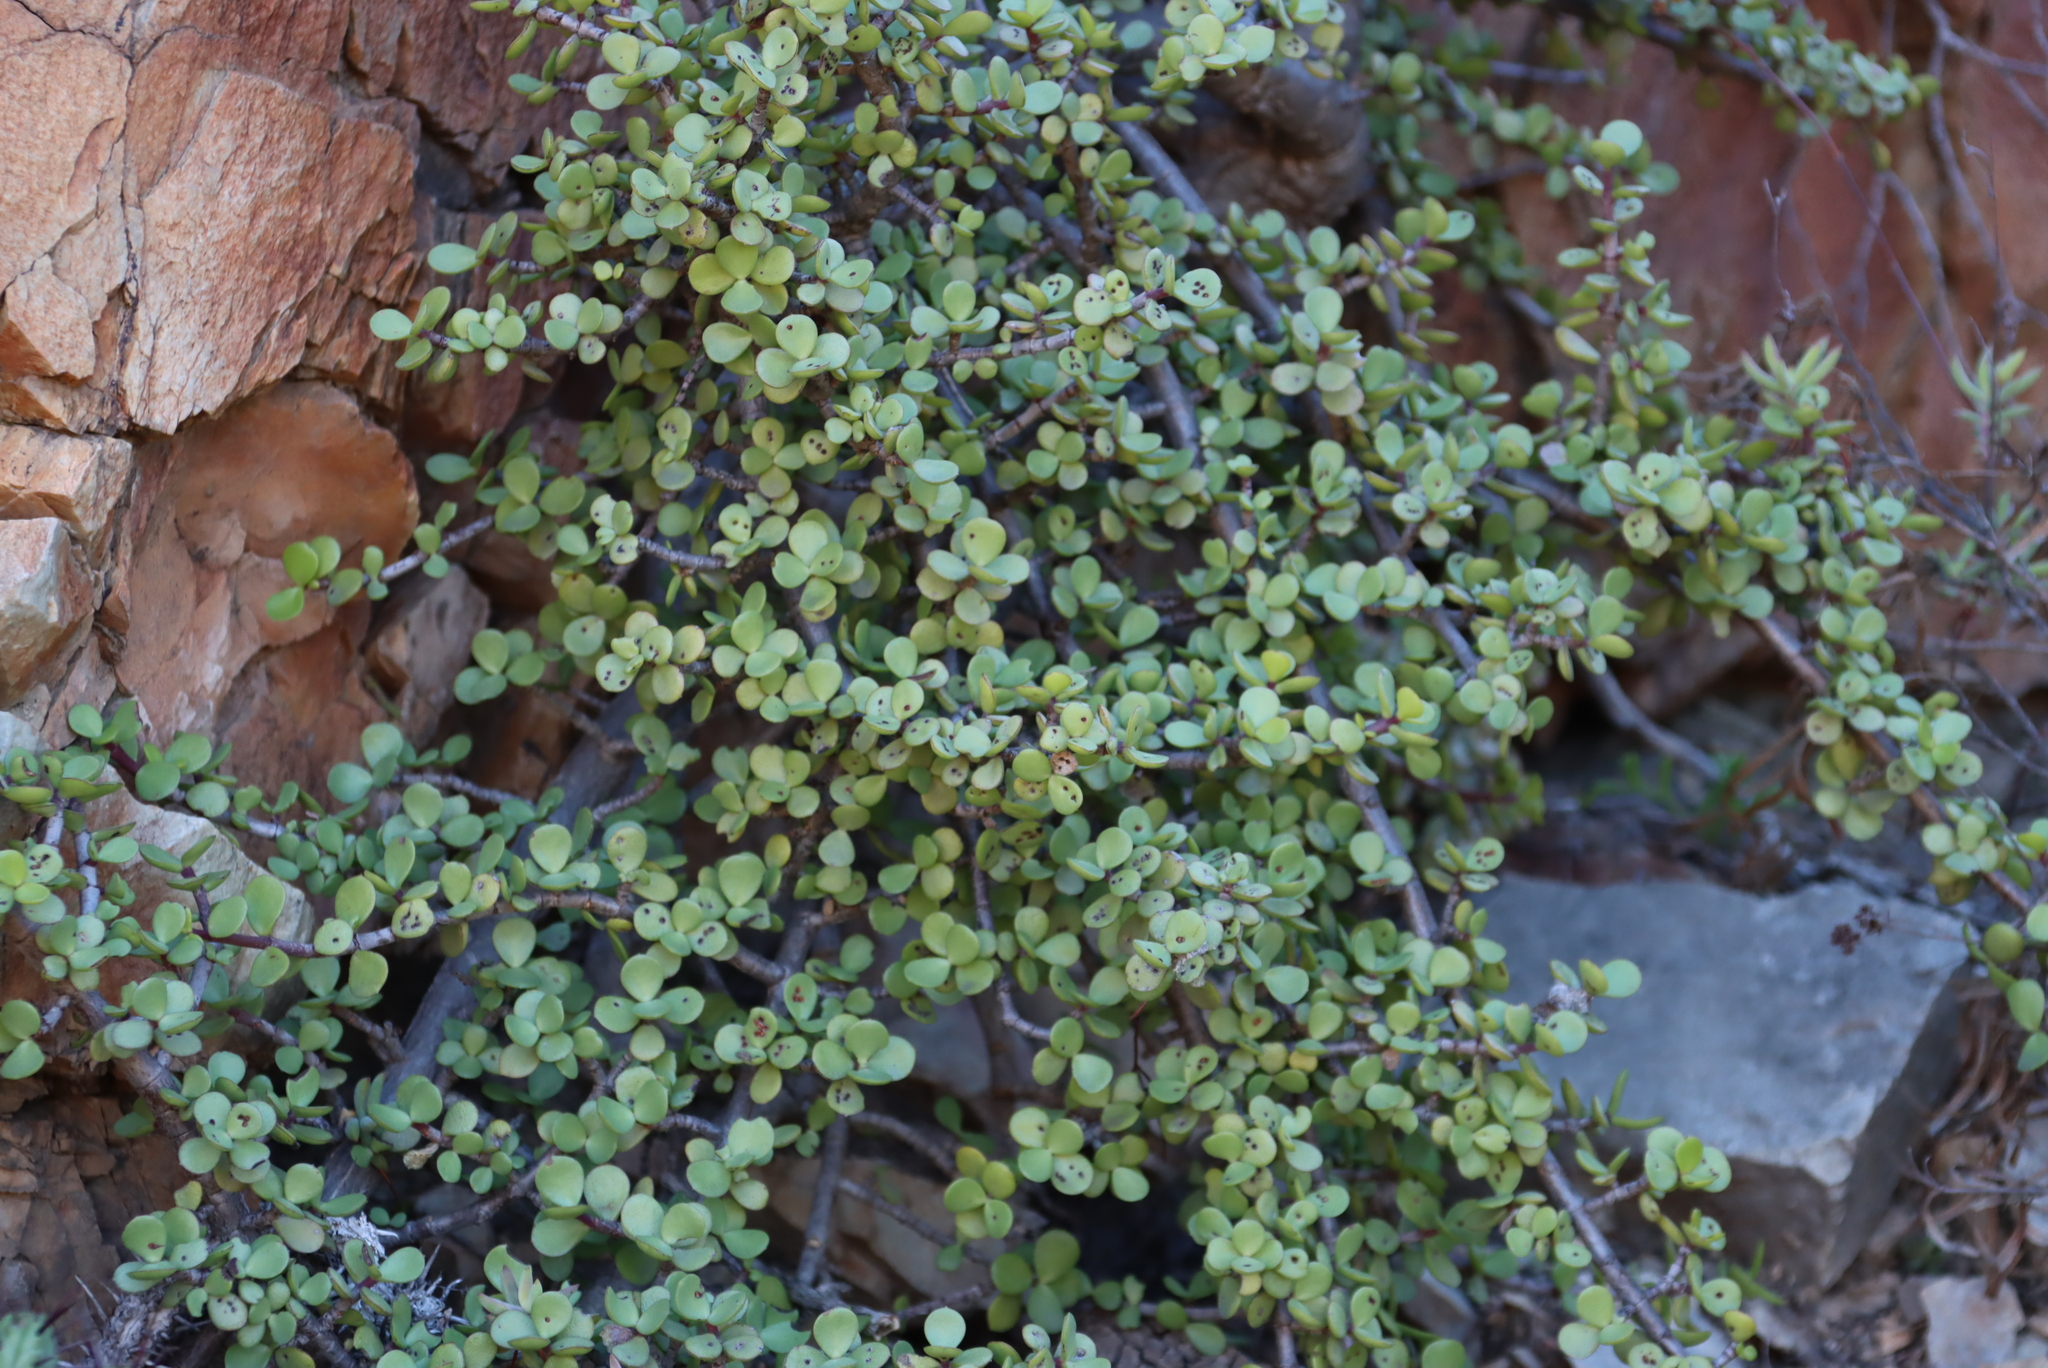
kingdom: Plantae
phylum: Tracheophyta
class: Magnoliopsida
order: Caryophyllales
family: Didiereaceae
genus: Portulacaria
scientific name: Portulacaria afra
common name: Elephant-bush
